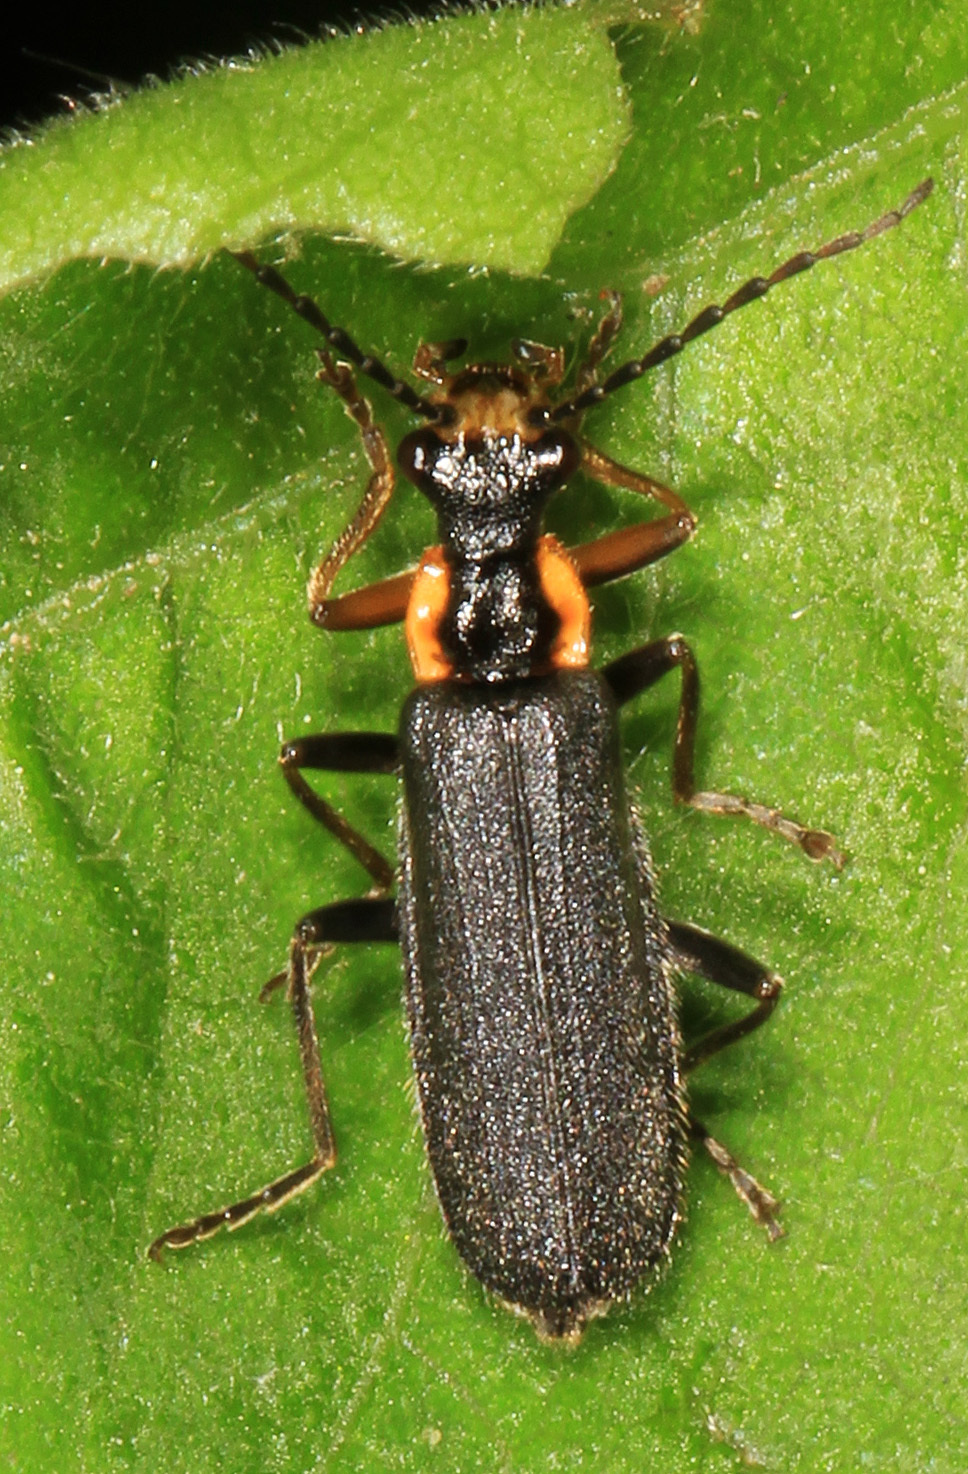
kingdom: Animalia
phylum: Arthropoda
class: Insecta
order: Coleoptera
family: Cantharidae
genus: Podabrus
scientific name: Podabrus rugosulus
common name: Wrinkled soldier beetle
